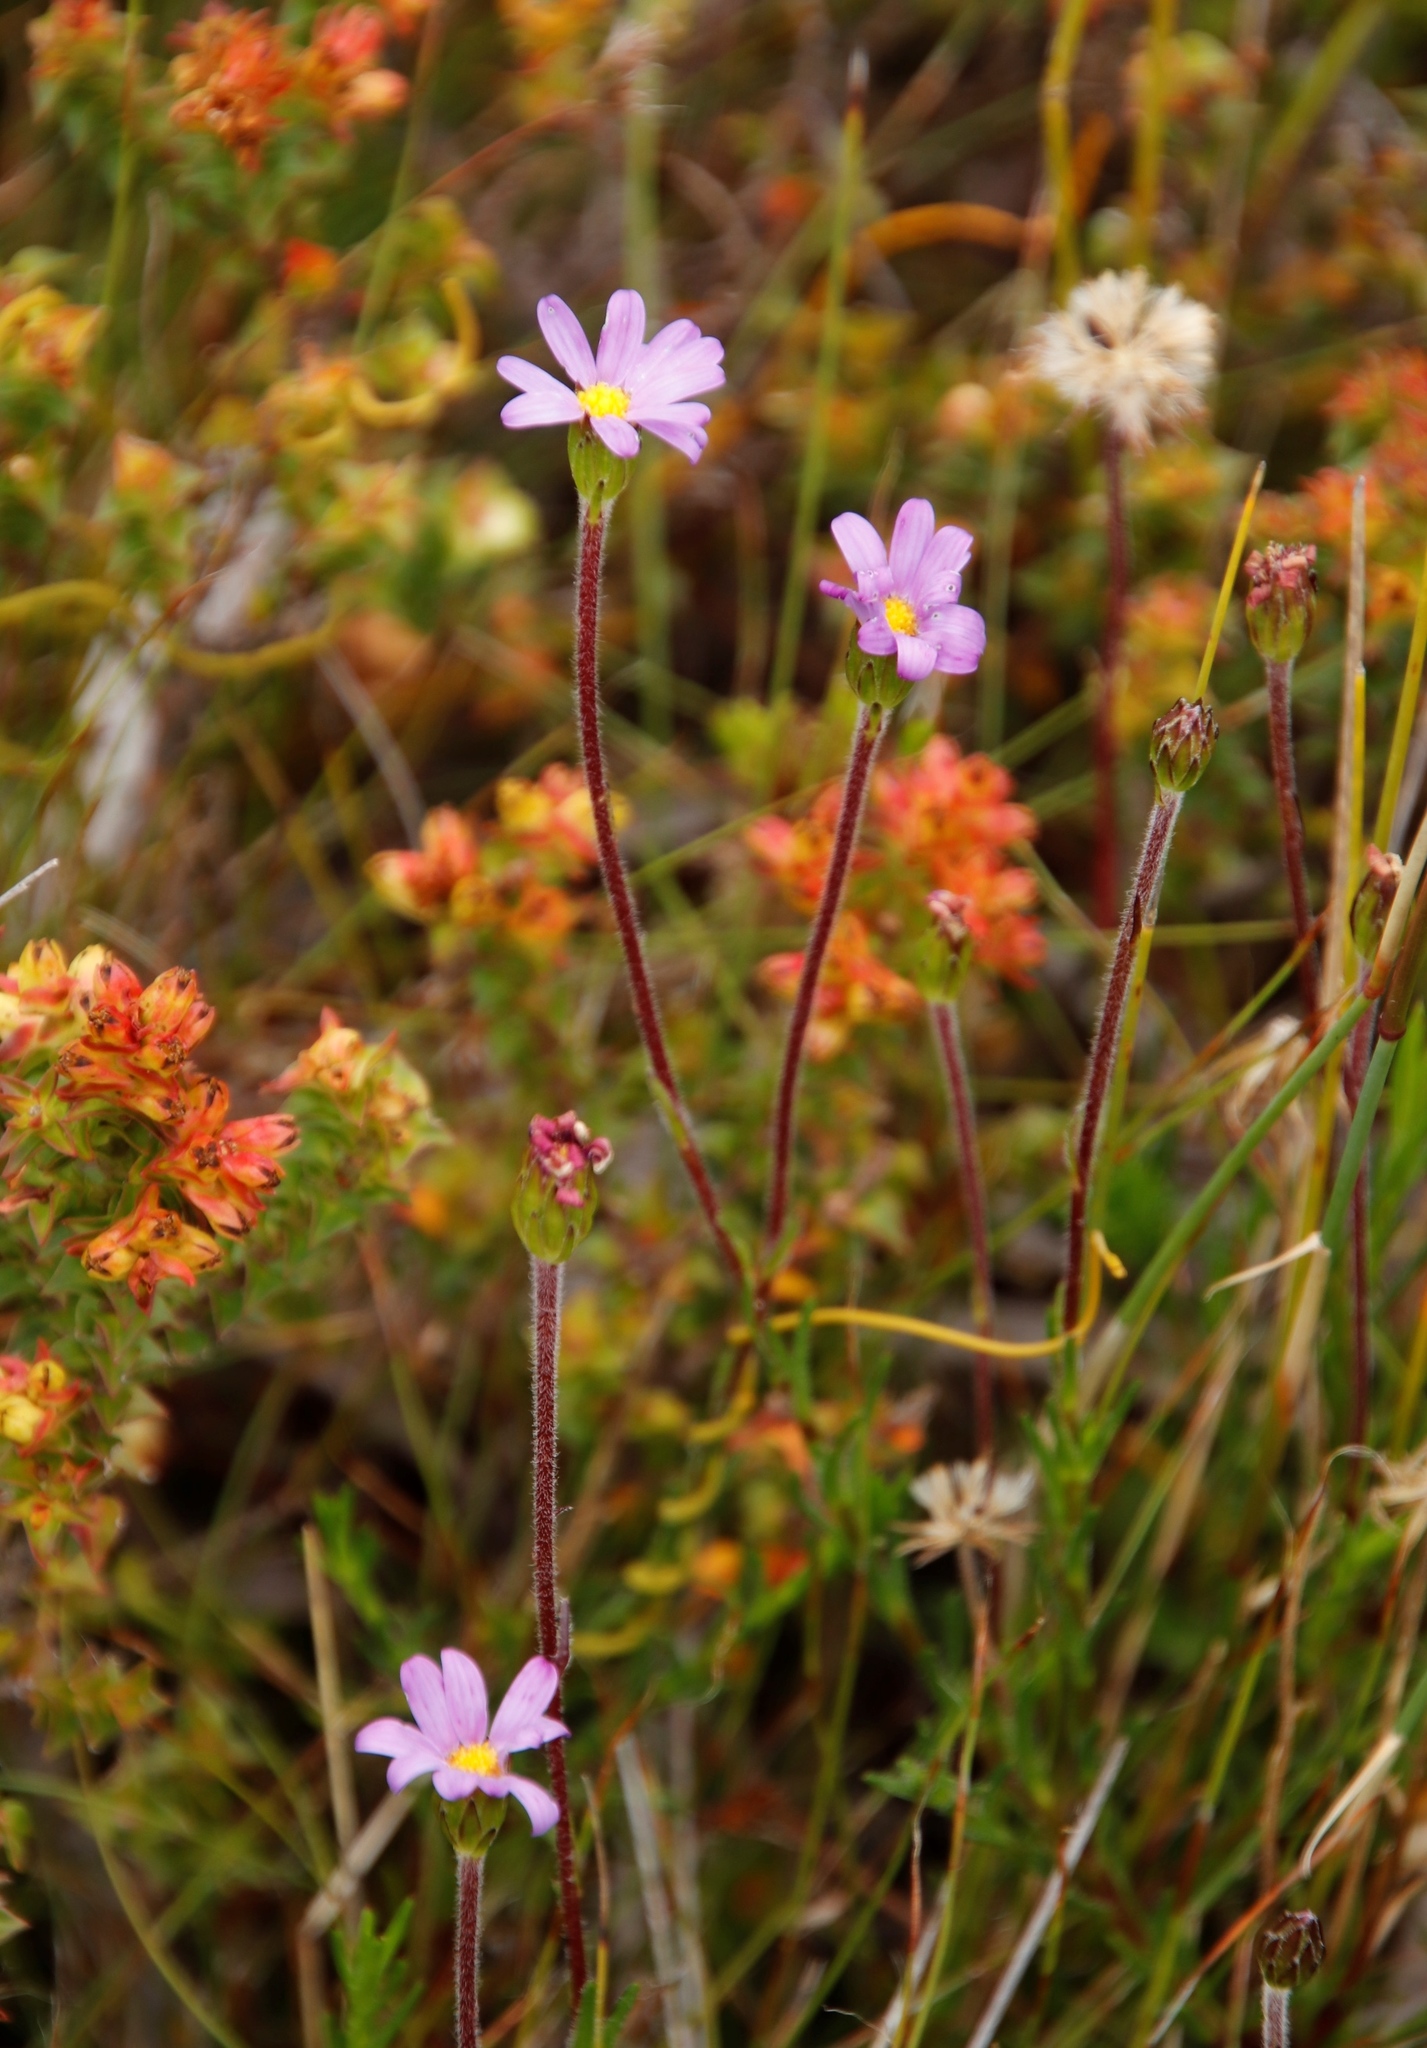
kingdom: Plantae
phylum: Tracheophyta
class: Magnoliopsida
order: Asterales
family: Asteraceae
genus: Zyrphelis
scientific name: Zyrphelis taxifolia
